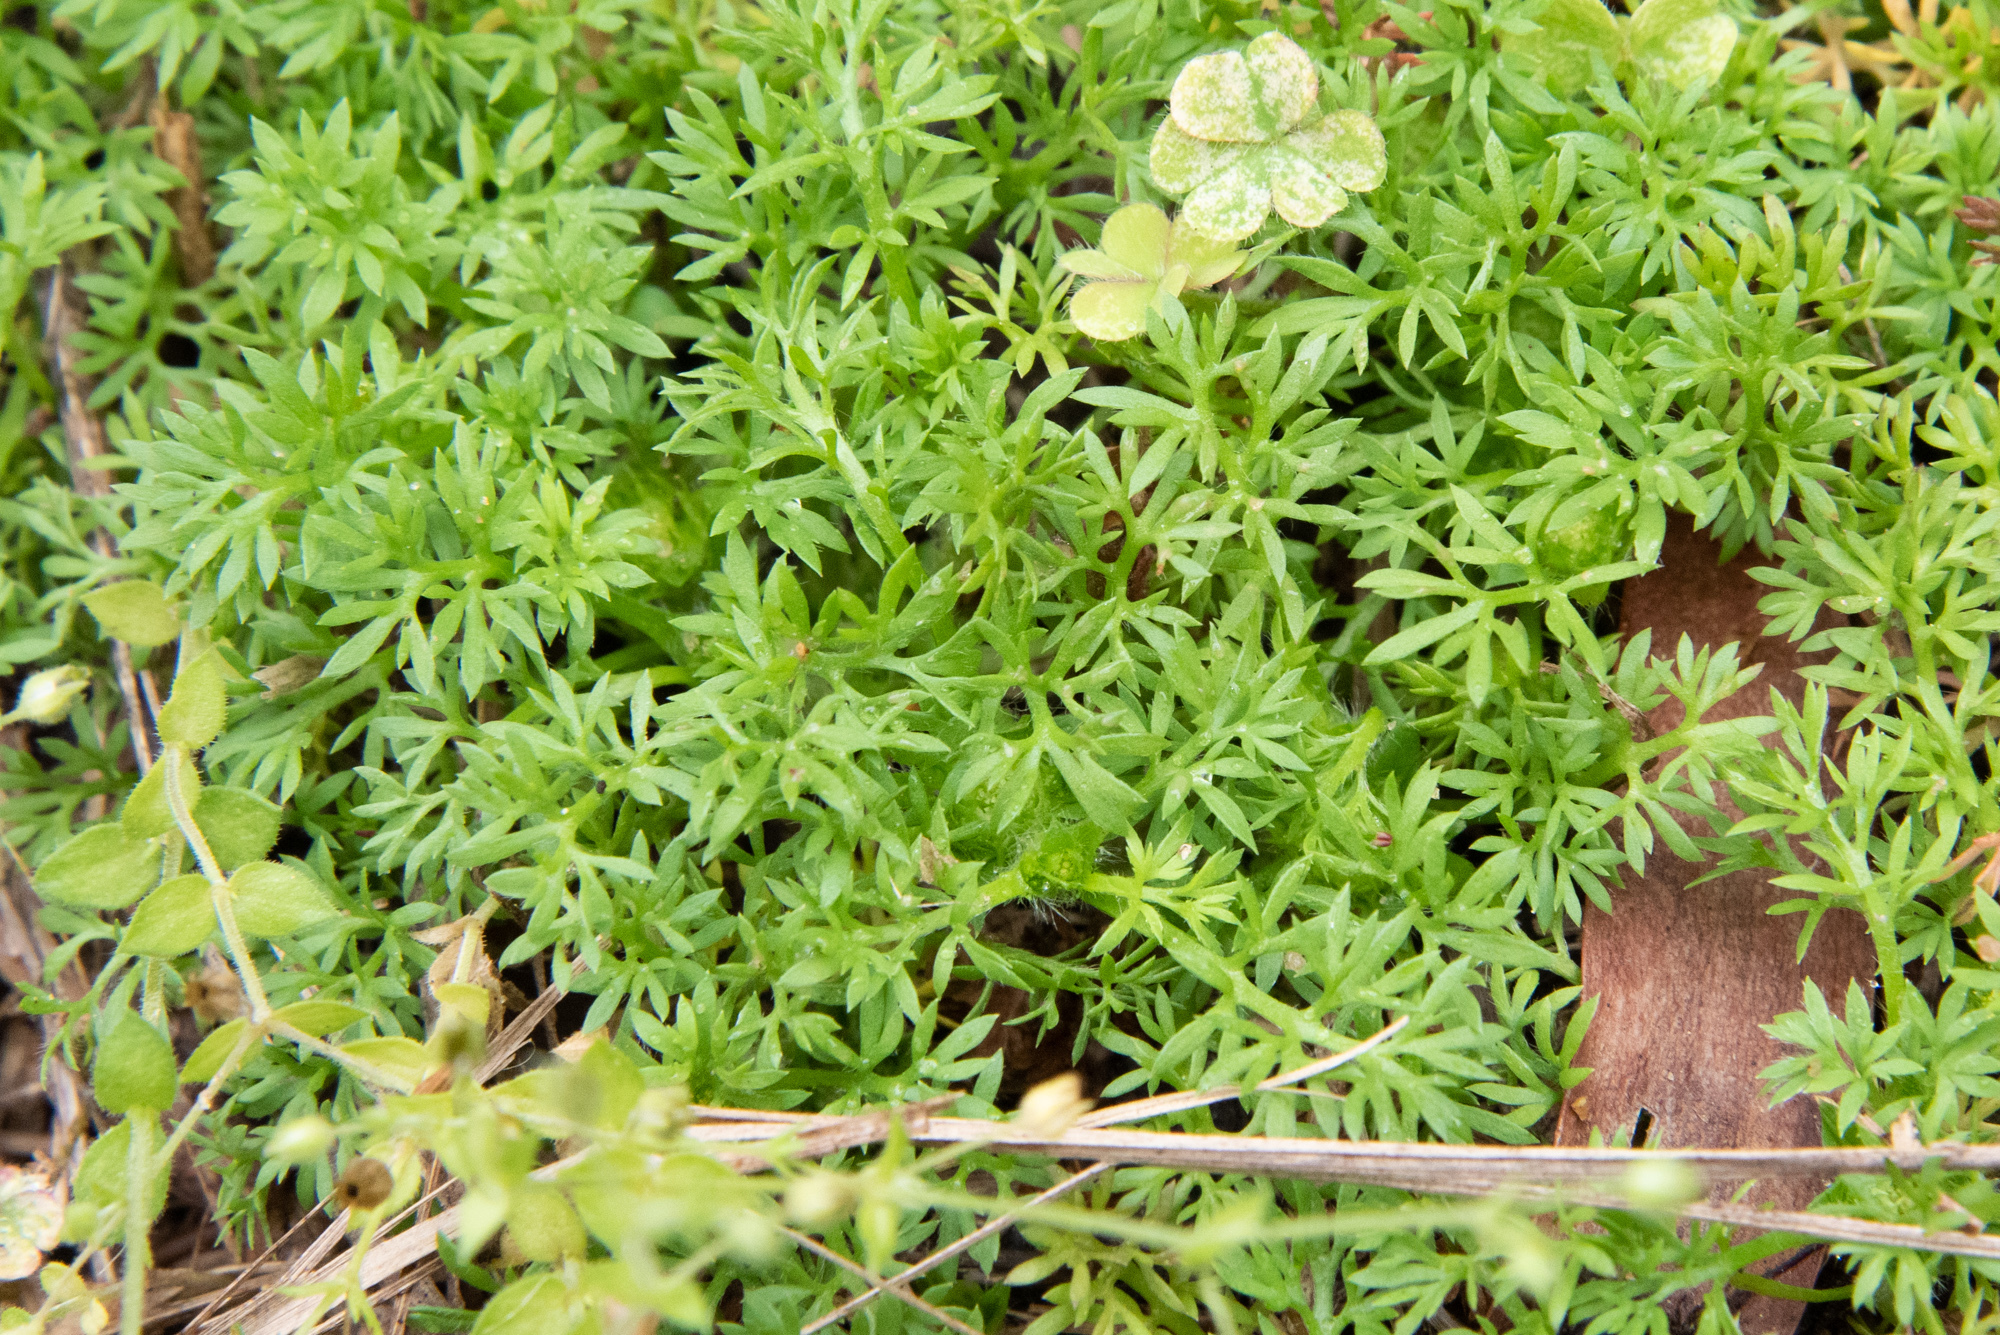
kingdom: Plantae
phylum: Tracheophyta
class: Magnoliopsida
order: Asterales
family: Asteraceae
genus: Soliva
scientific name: Soliva anthemifolia
